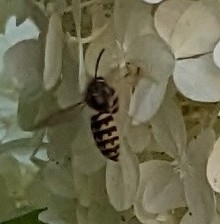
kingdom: Animalia
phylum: Arthropoda
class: Insecta
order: Hymenoptera
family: Vespidae
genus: Dolichovespula
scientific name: Dolichovespula arenaria
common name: Aerial yellowjacket
